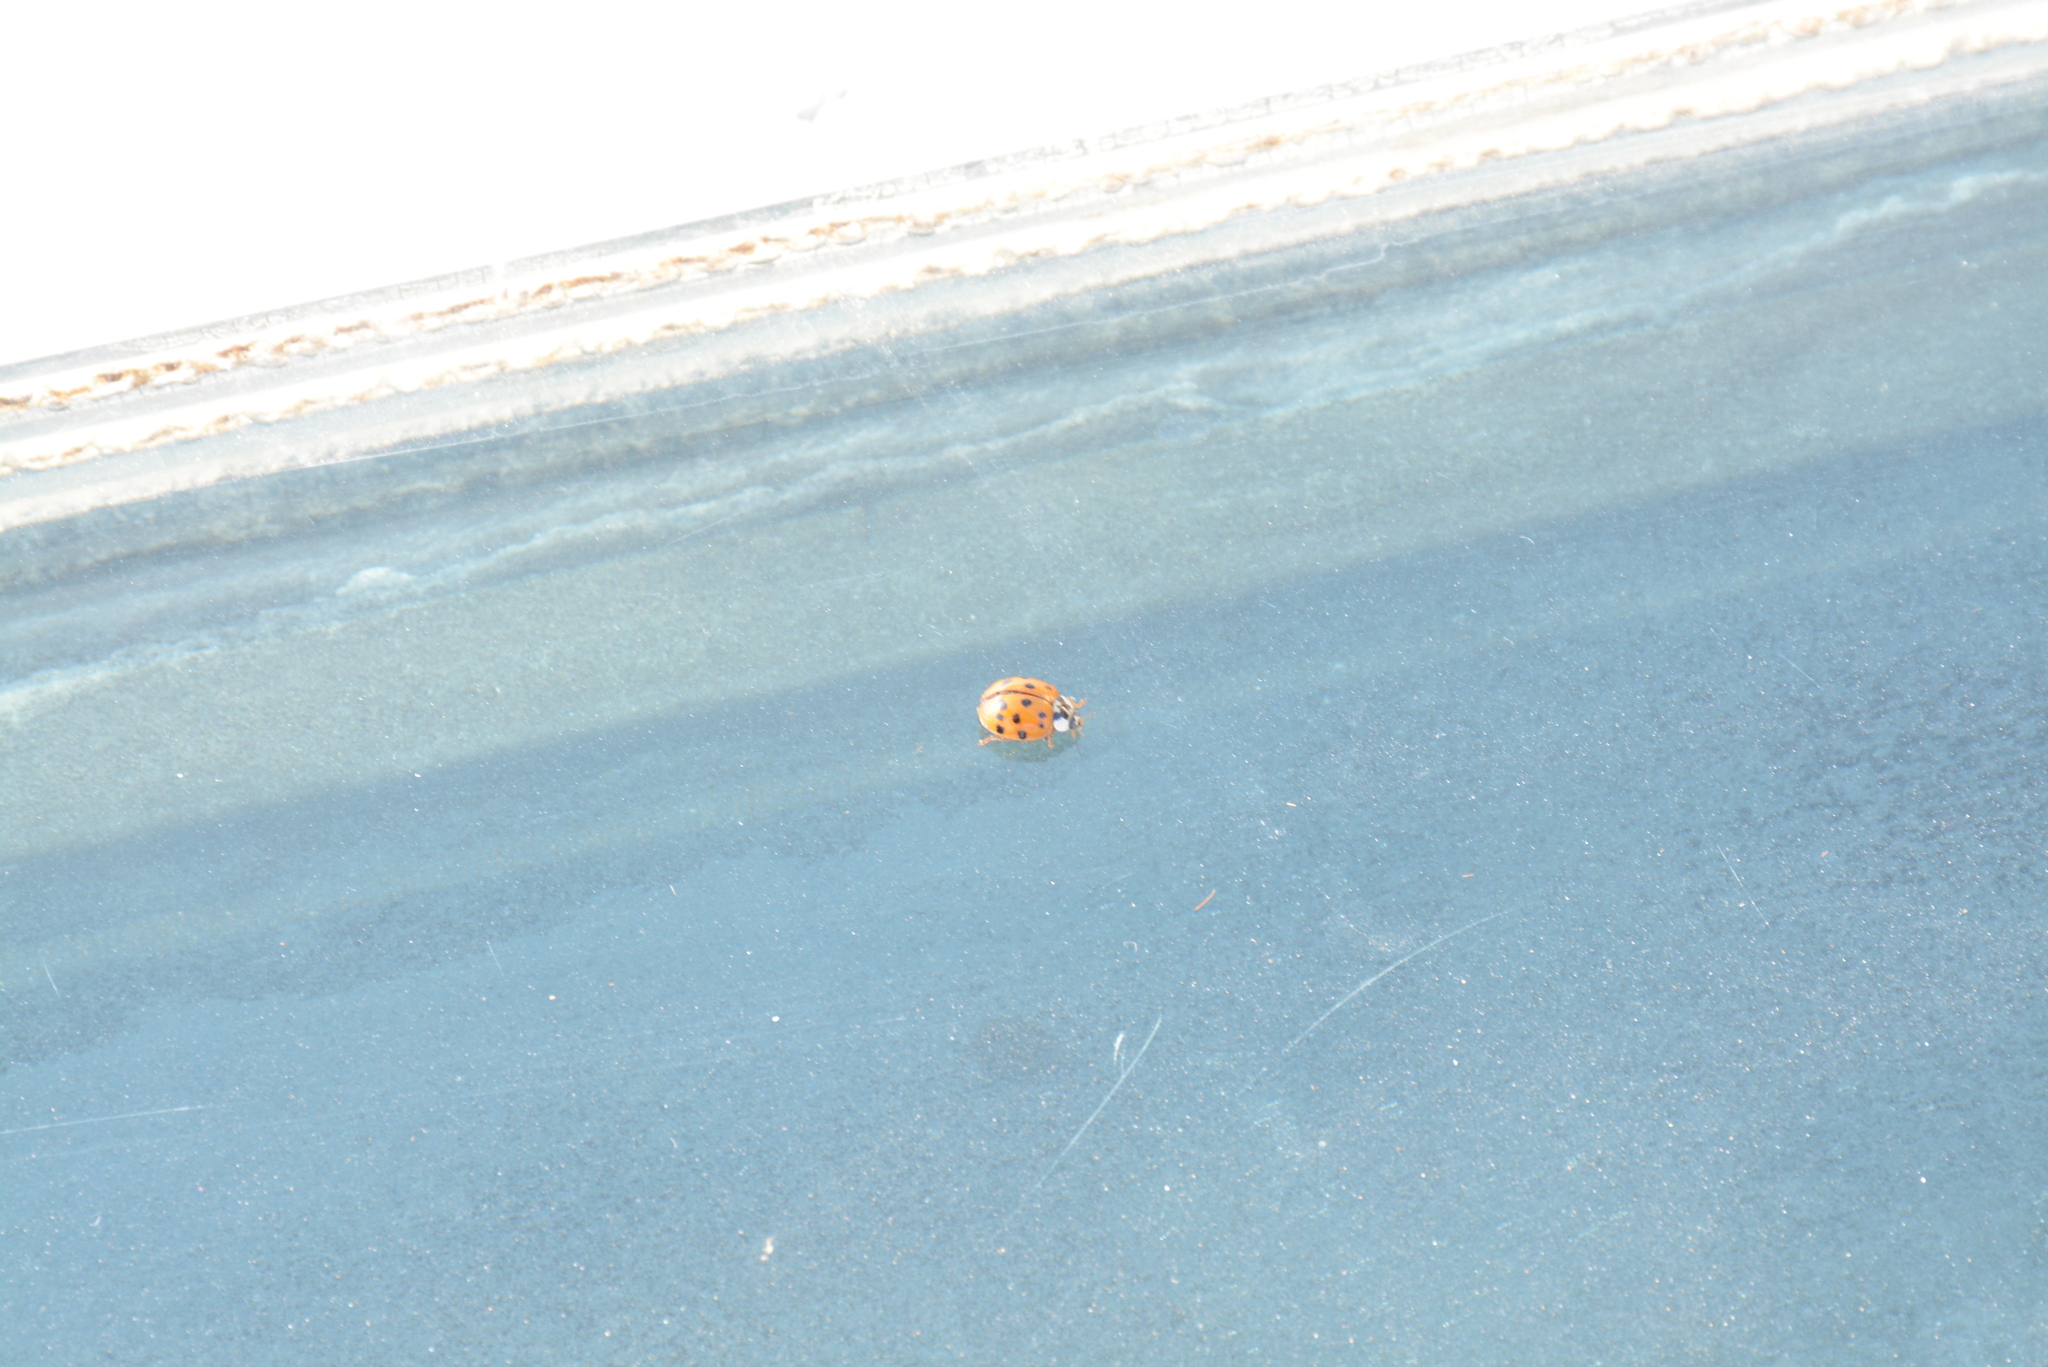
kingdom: Animalia
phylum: Arthropoda
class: Insecta
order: Coleoptera
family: Coccinellidae
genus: Harmonia
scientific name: Harmonia axyridis
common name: Harlequin ladybird
